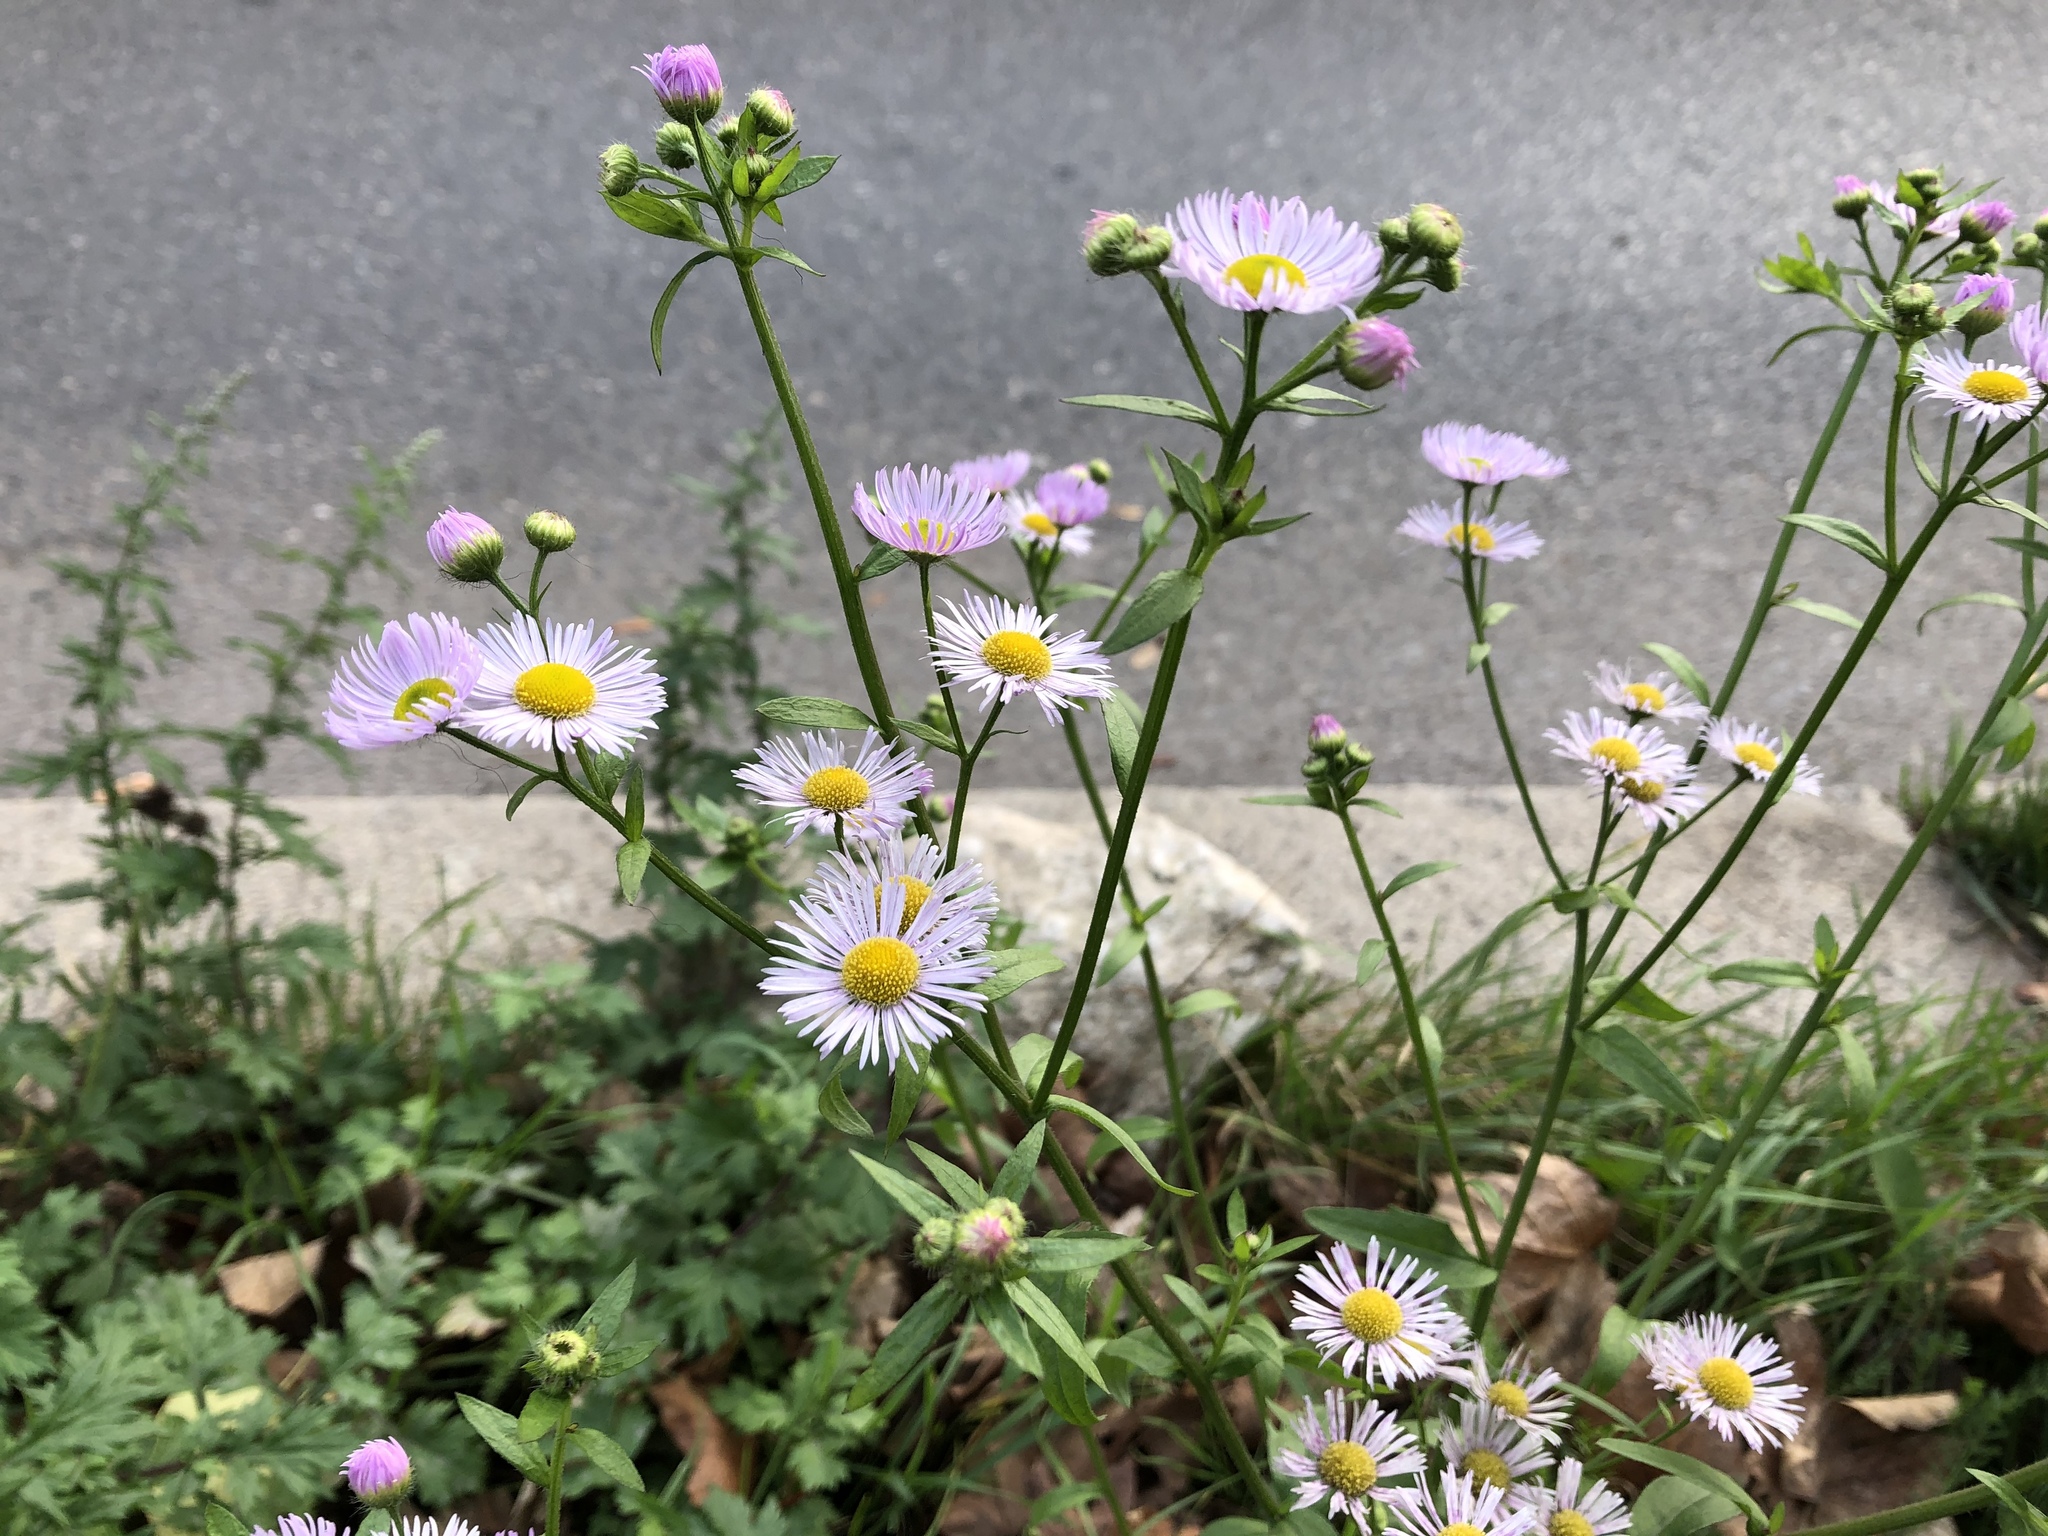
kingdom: Plantae
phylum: Tracheophyta
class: Magnoliopsida
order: Asterales
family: Asteraceae
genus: Erigeron
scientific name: Erigeron annuus
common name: Tall fleabane
